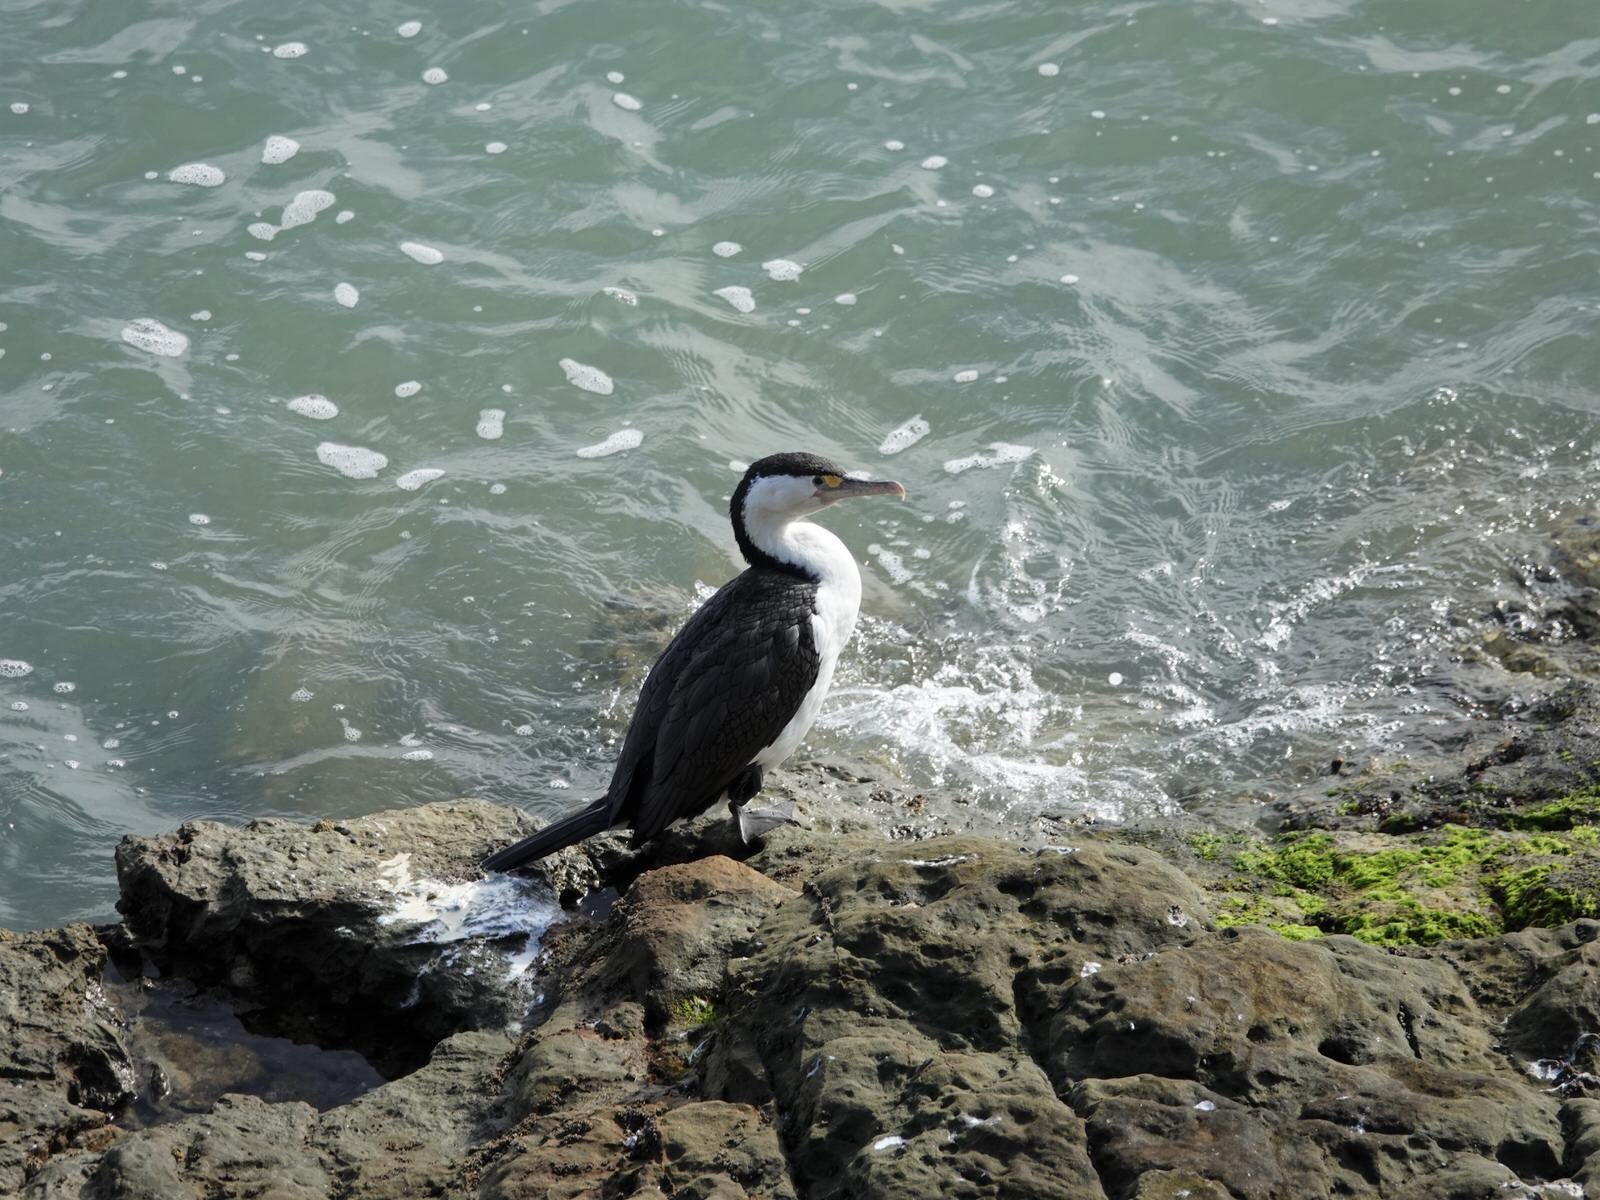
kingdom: Animalia
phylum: Chordata
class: Aves
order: Suliformes
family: Phalacrocoracidae
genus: Phalacrocorax
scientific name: Phalacrocorax varius
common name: Pied cormorant
